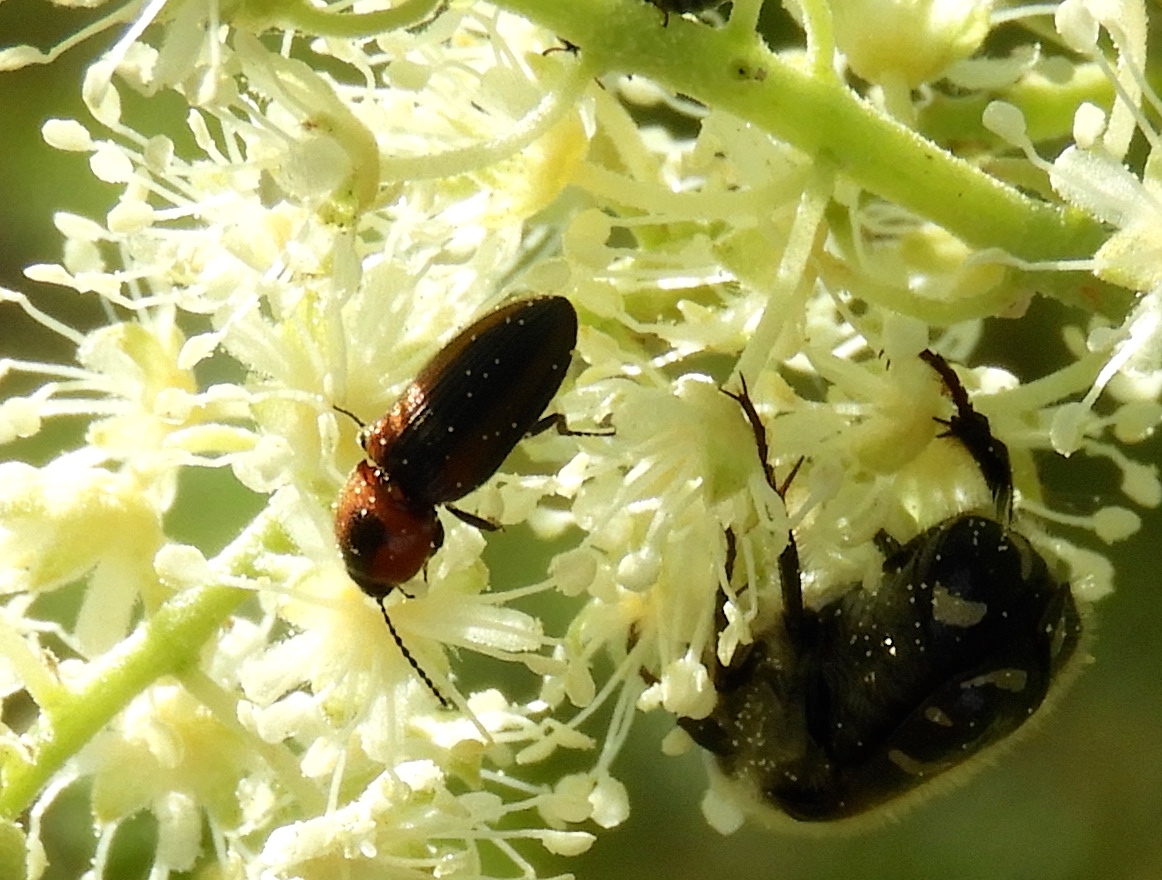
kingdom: Animalia
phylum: Arthropoda
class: Insecta
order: Coleoptera
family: Elateridae
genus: Cardiophorus
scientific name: Cardiophorus aptopoides
